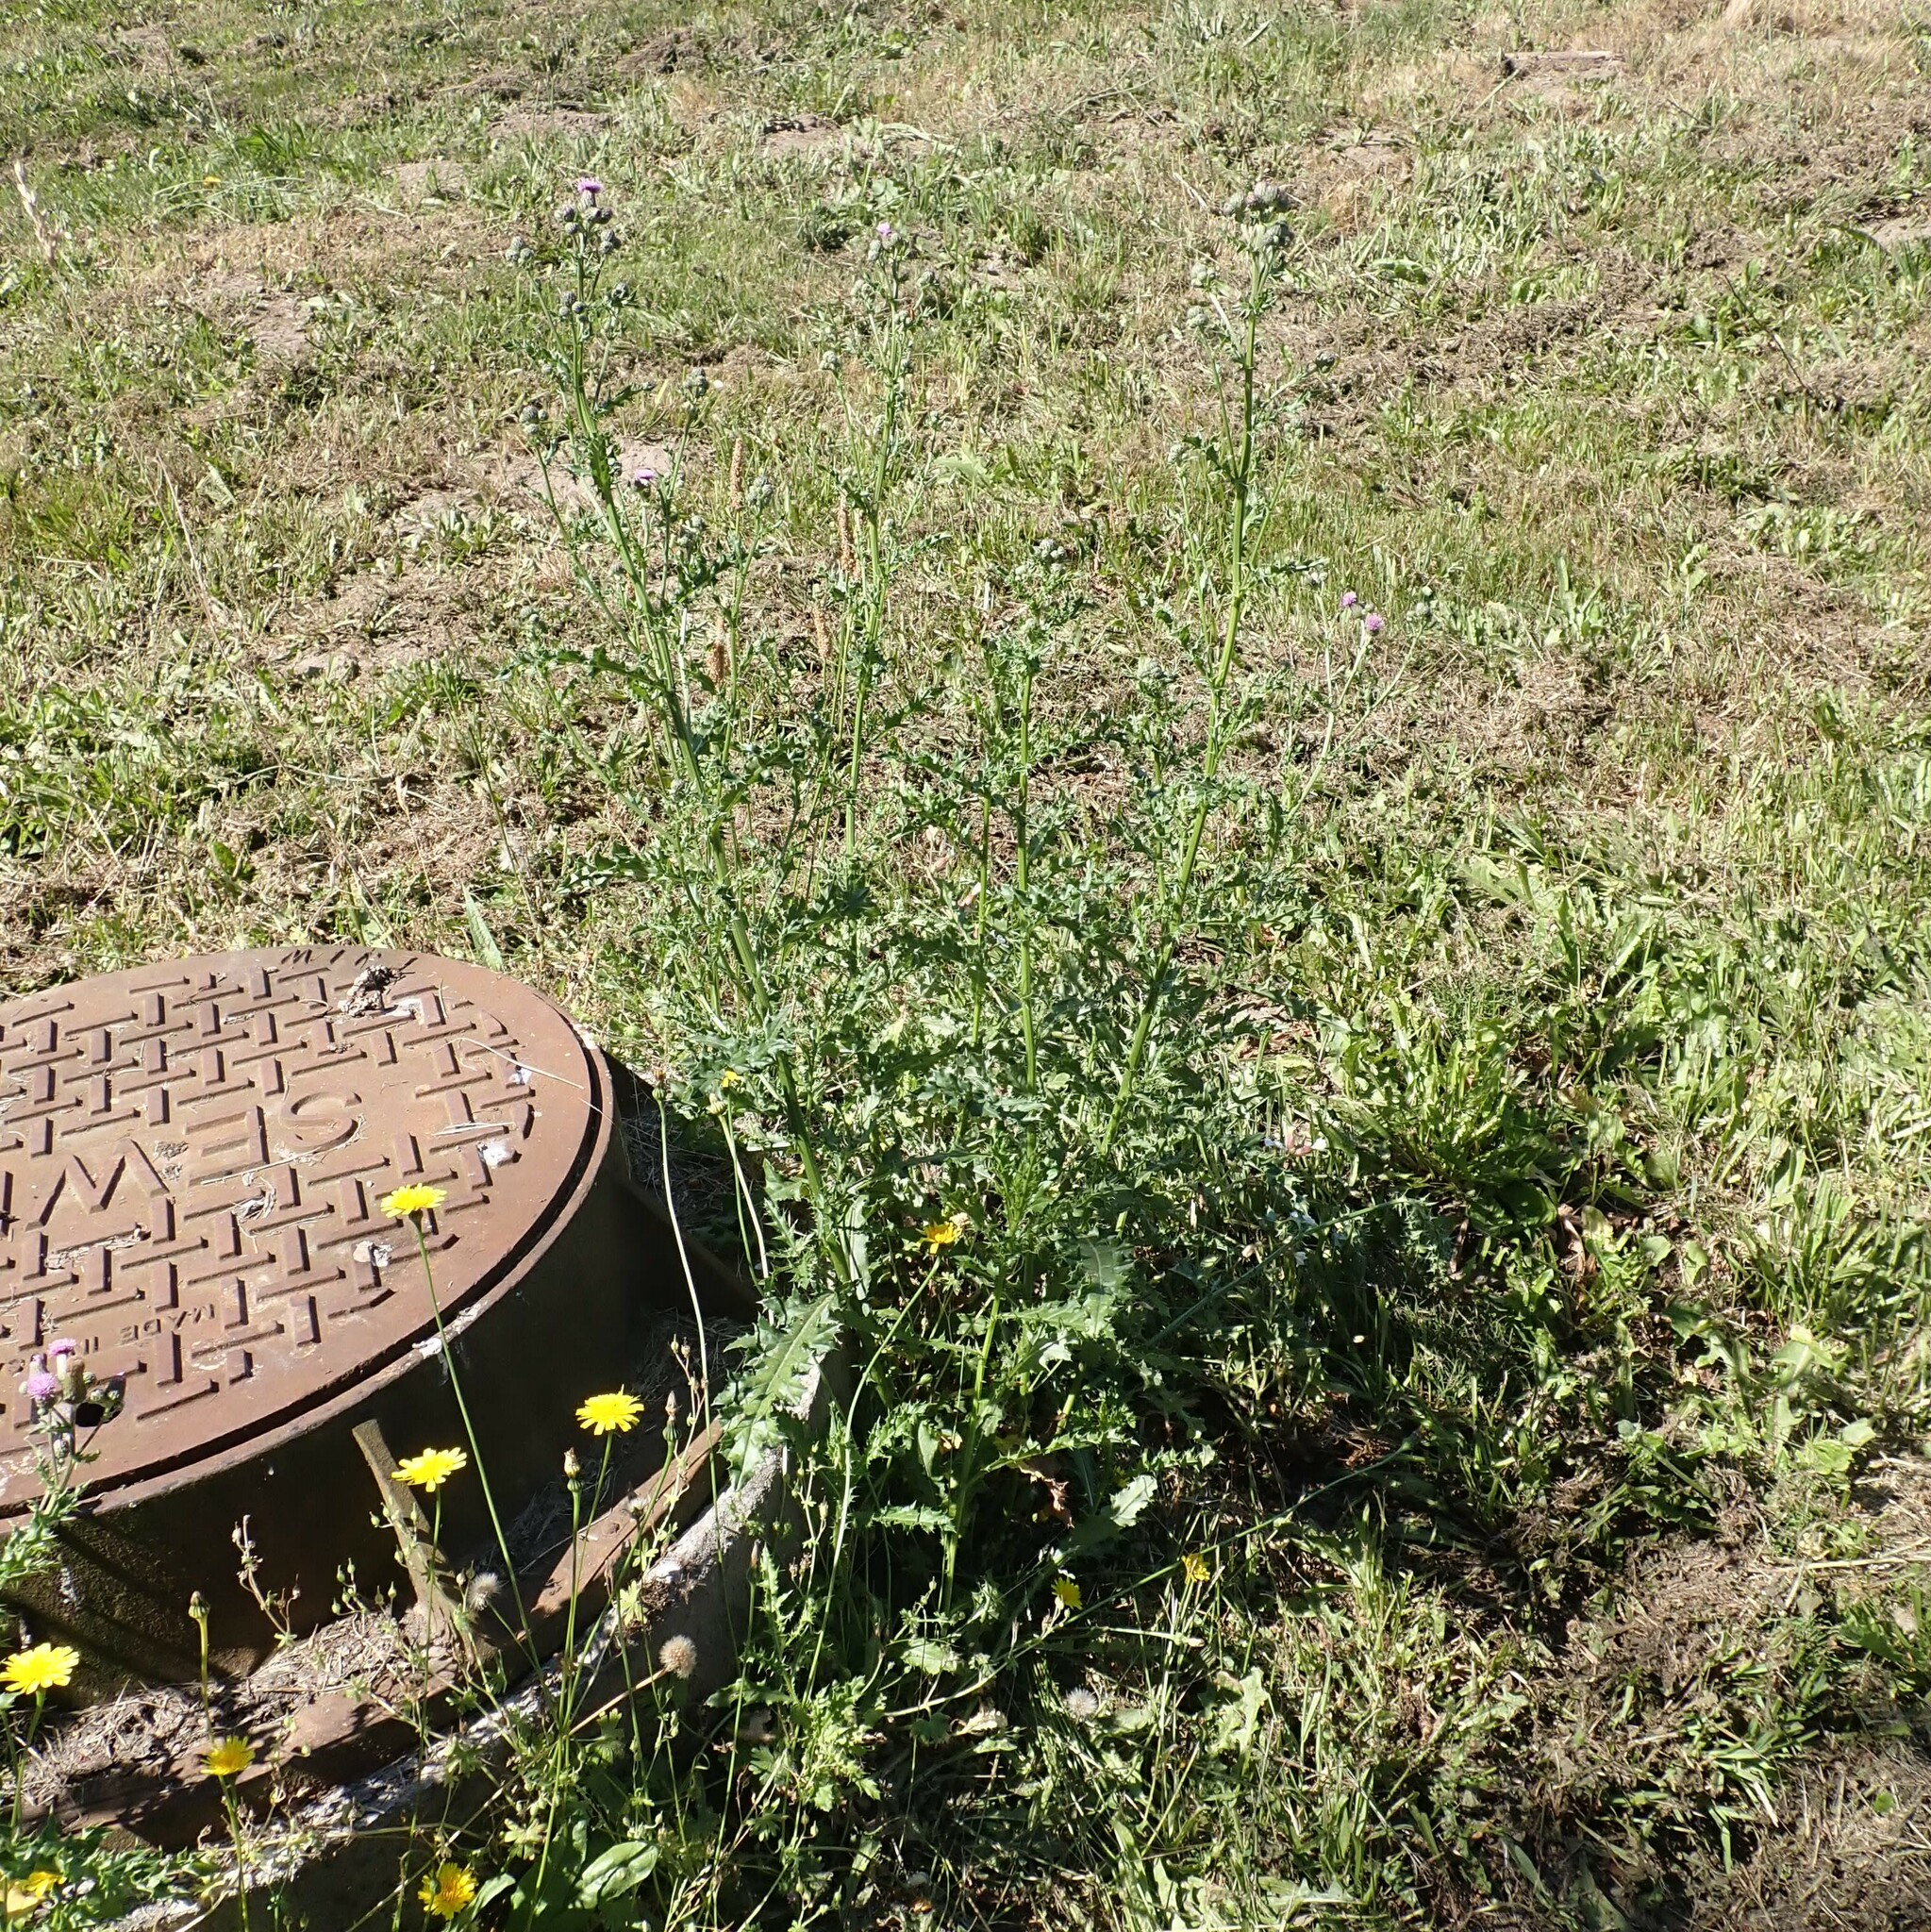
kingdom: Plantae
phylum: Tracheophyta
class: Magnoliopsida
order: Asterales
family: Asteraceae
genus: Cirsium
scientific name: Cirsium arvense
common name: Creeping thistle
